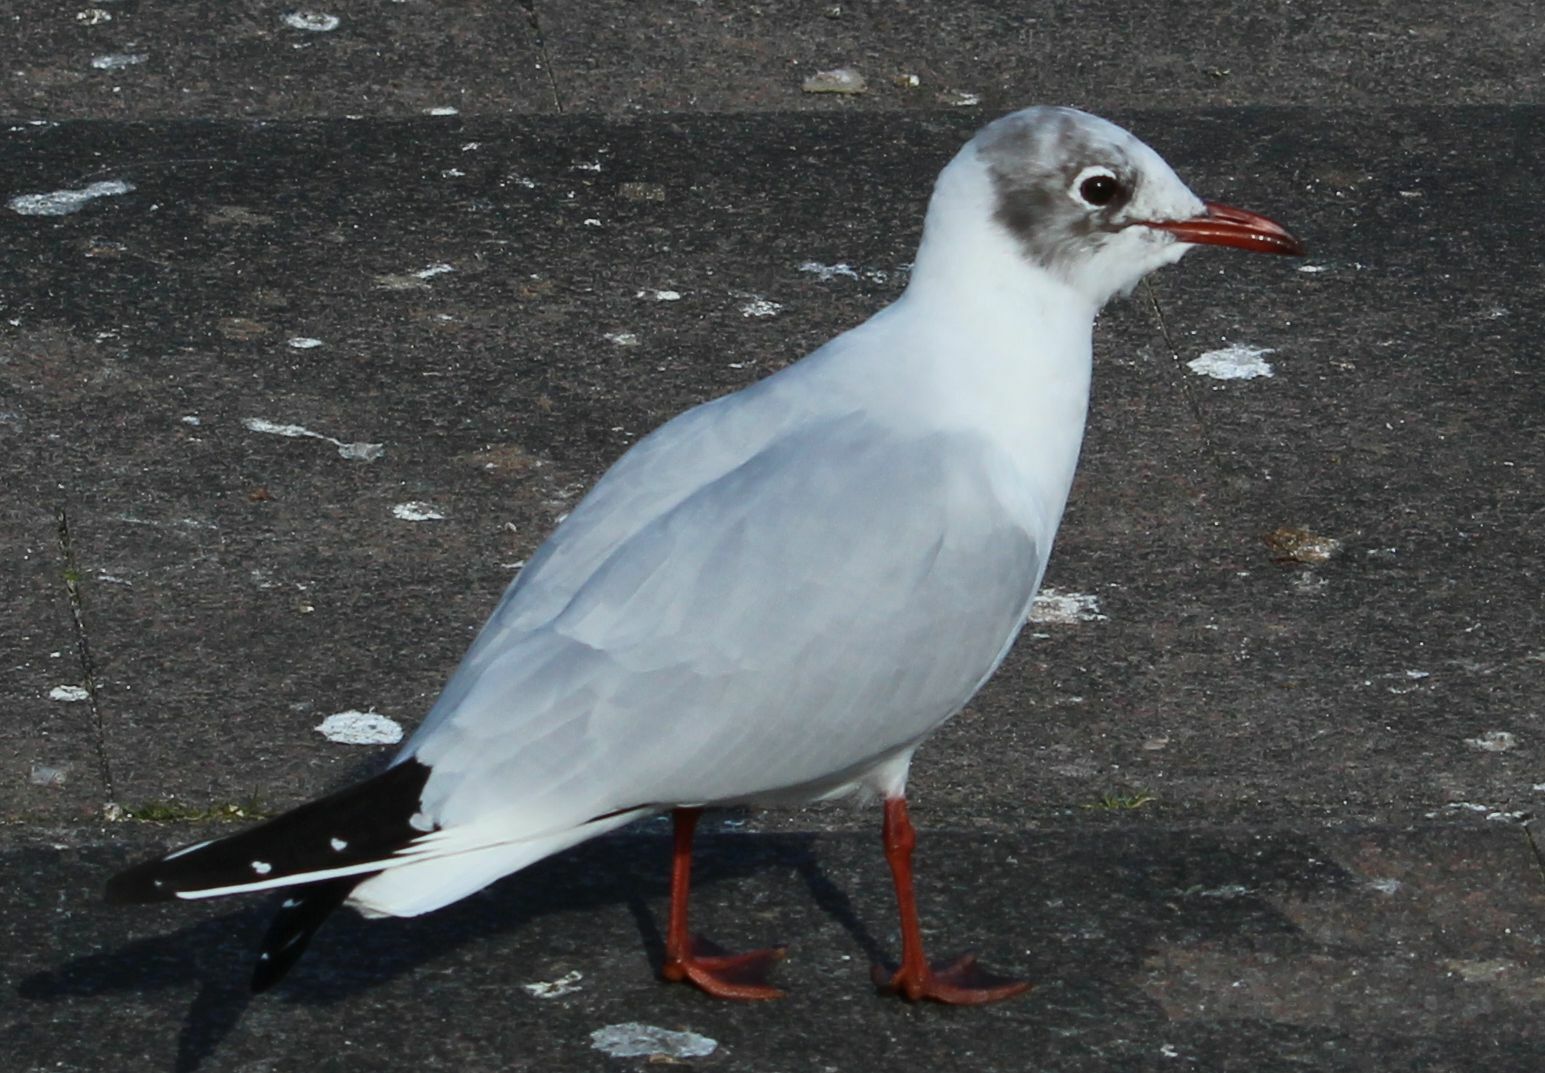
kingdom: Animalia
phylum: Chordata
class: Aves
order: Charadriiformes
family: Laridae
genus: Chroicocephalus
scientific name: Chroicocephalus ridibundus
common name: Black-headed gull
